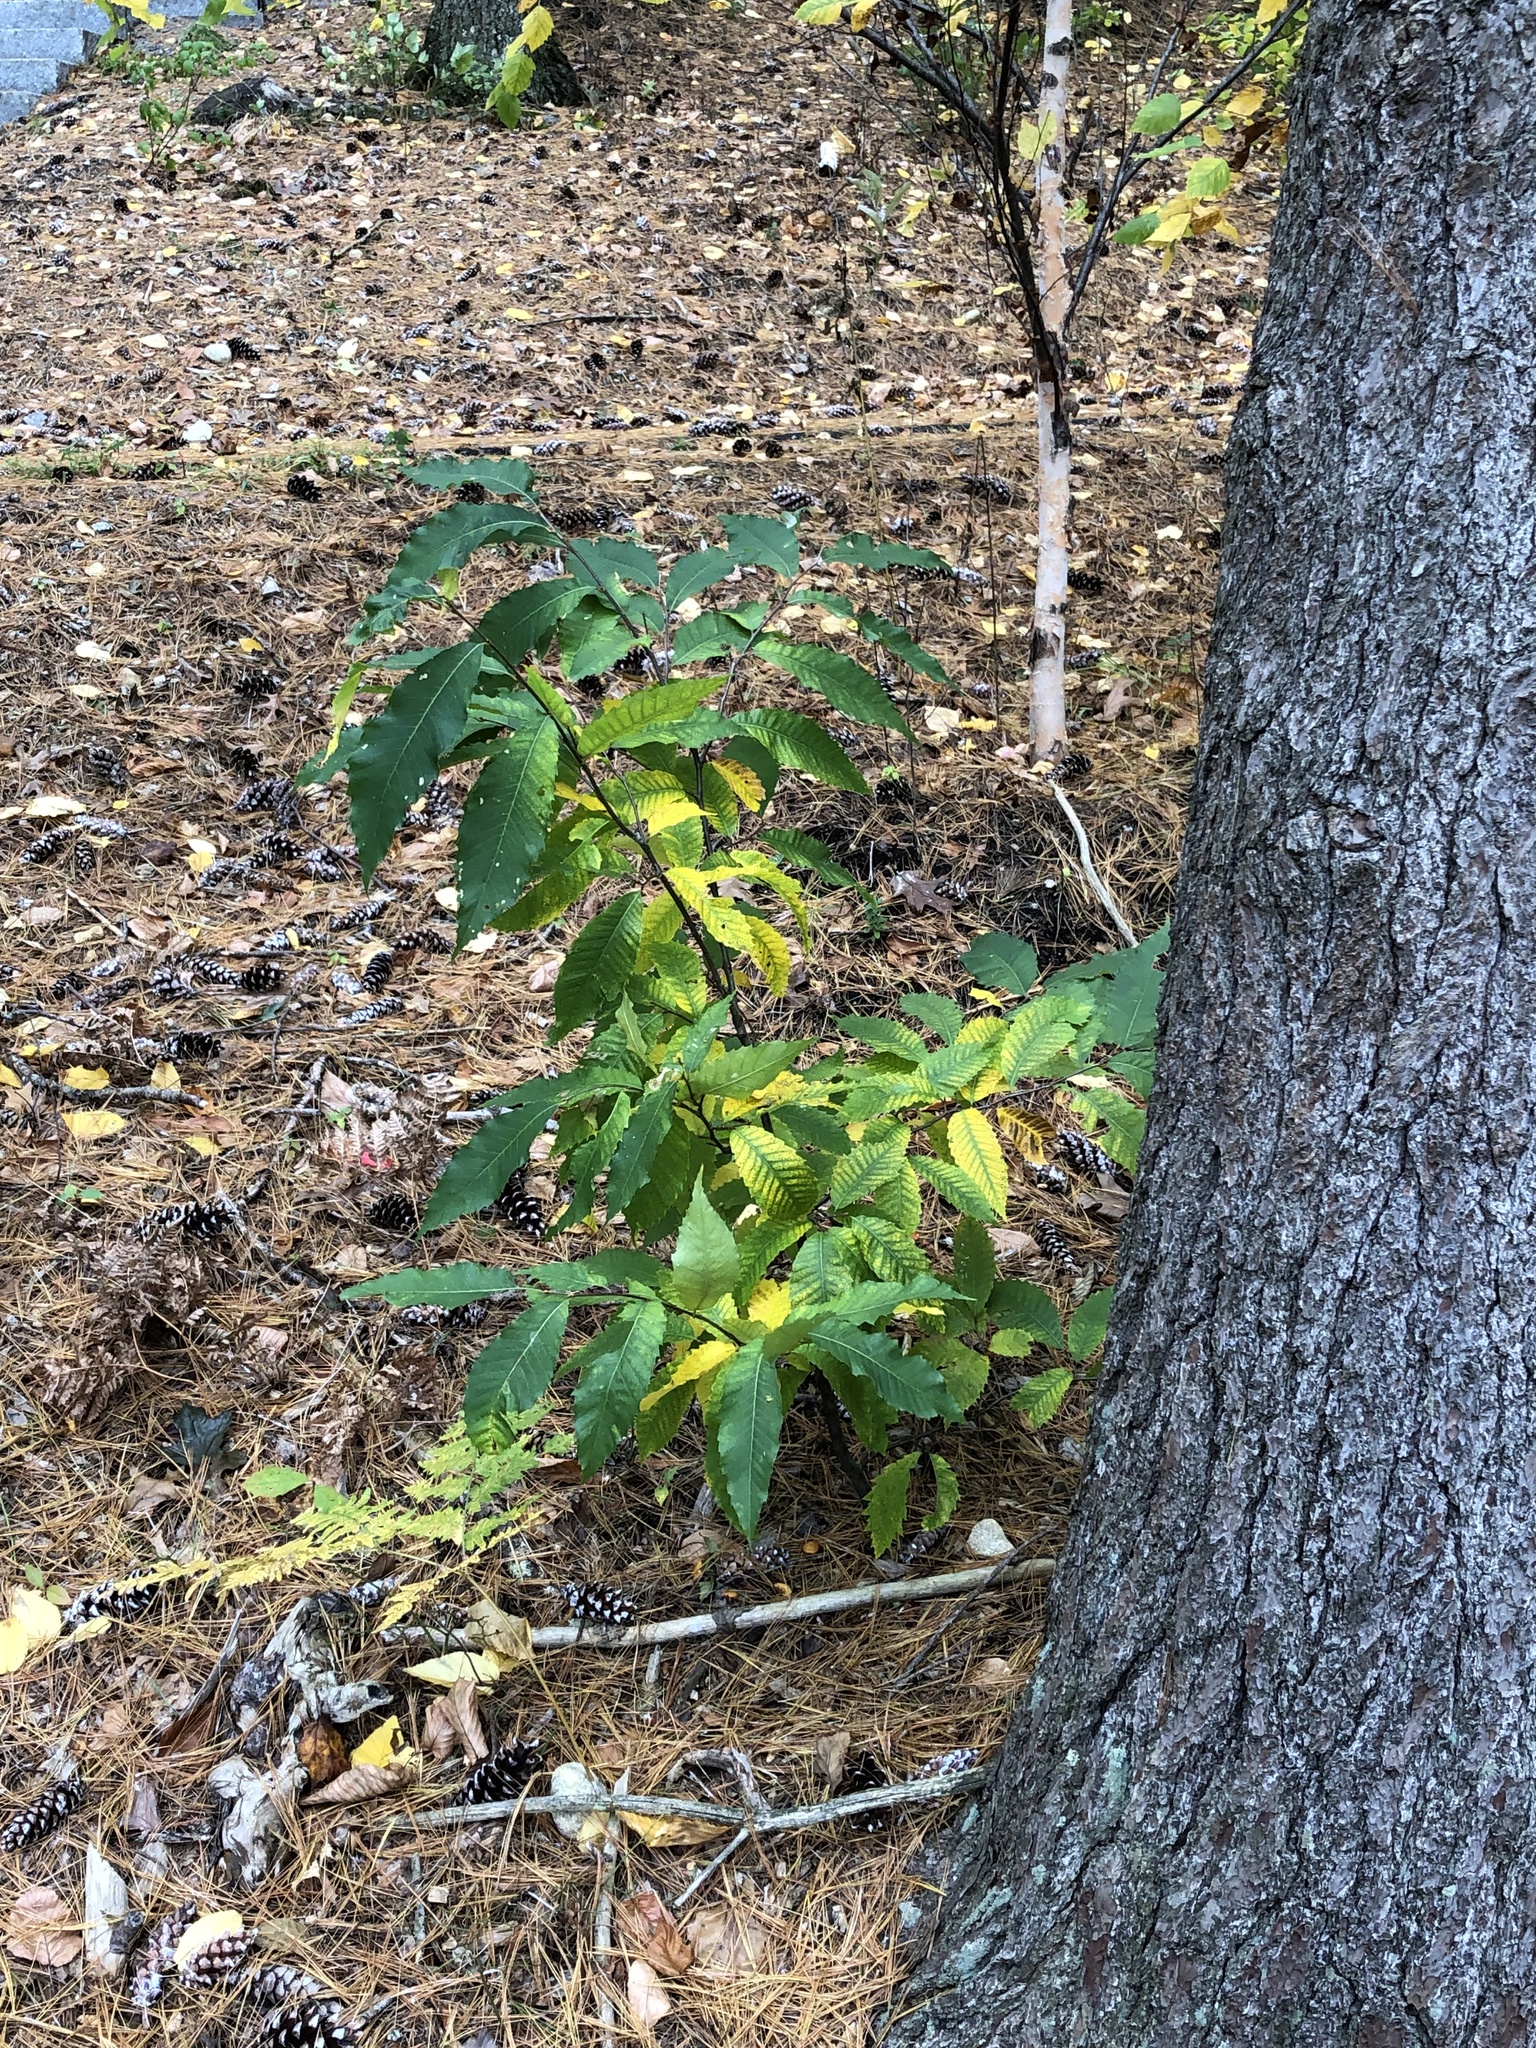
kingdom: Plantae
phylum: Tracheophyta
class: Magnoliopsida
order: Fagales
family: Fagaceae
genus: Castanea
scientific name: Castanea dentata
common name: American chestnut
